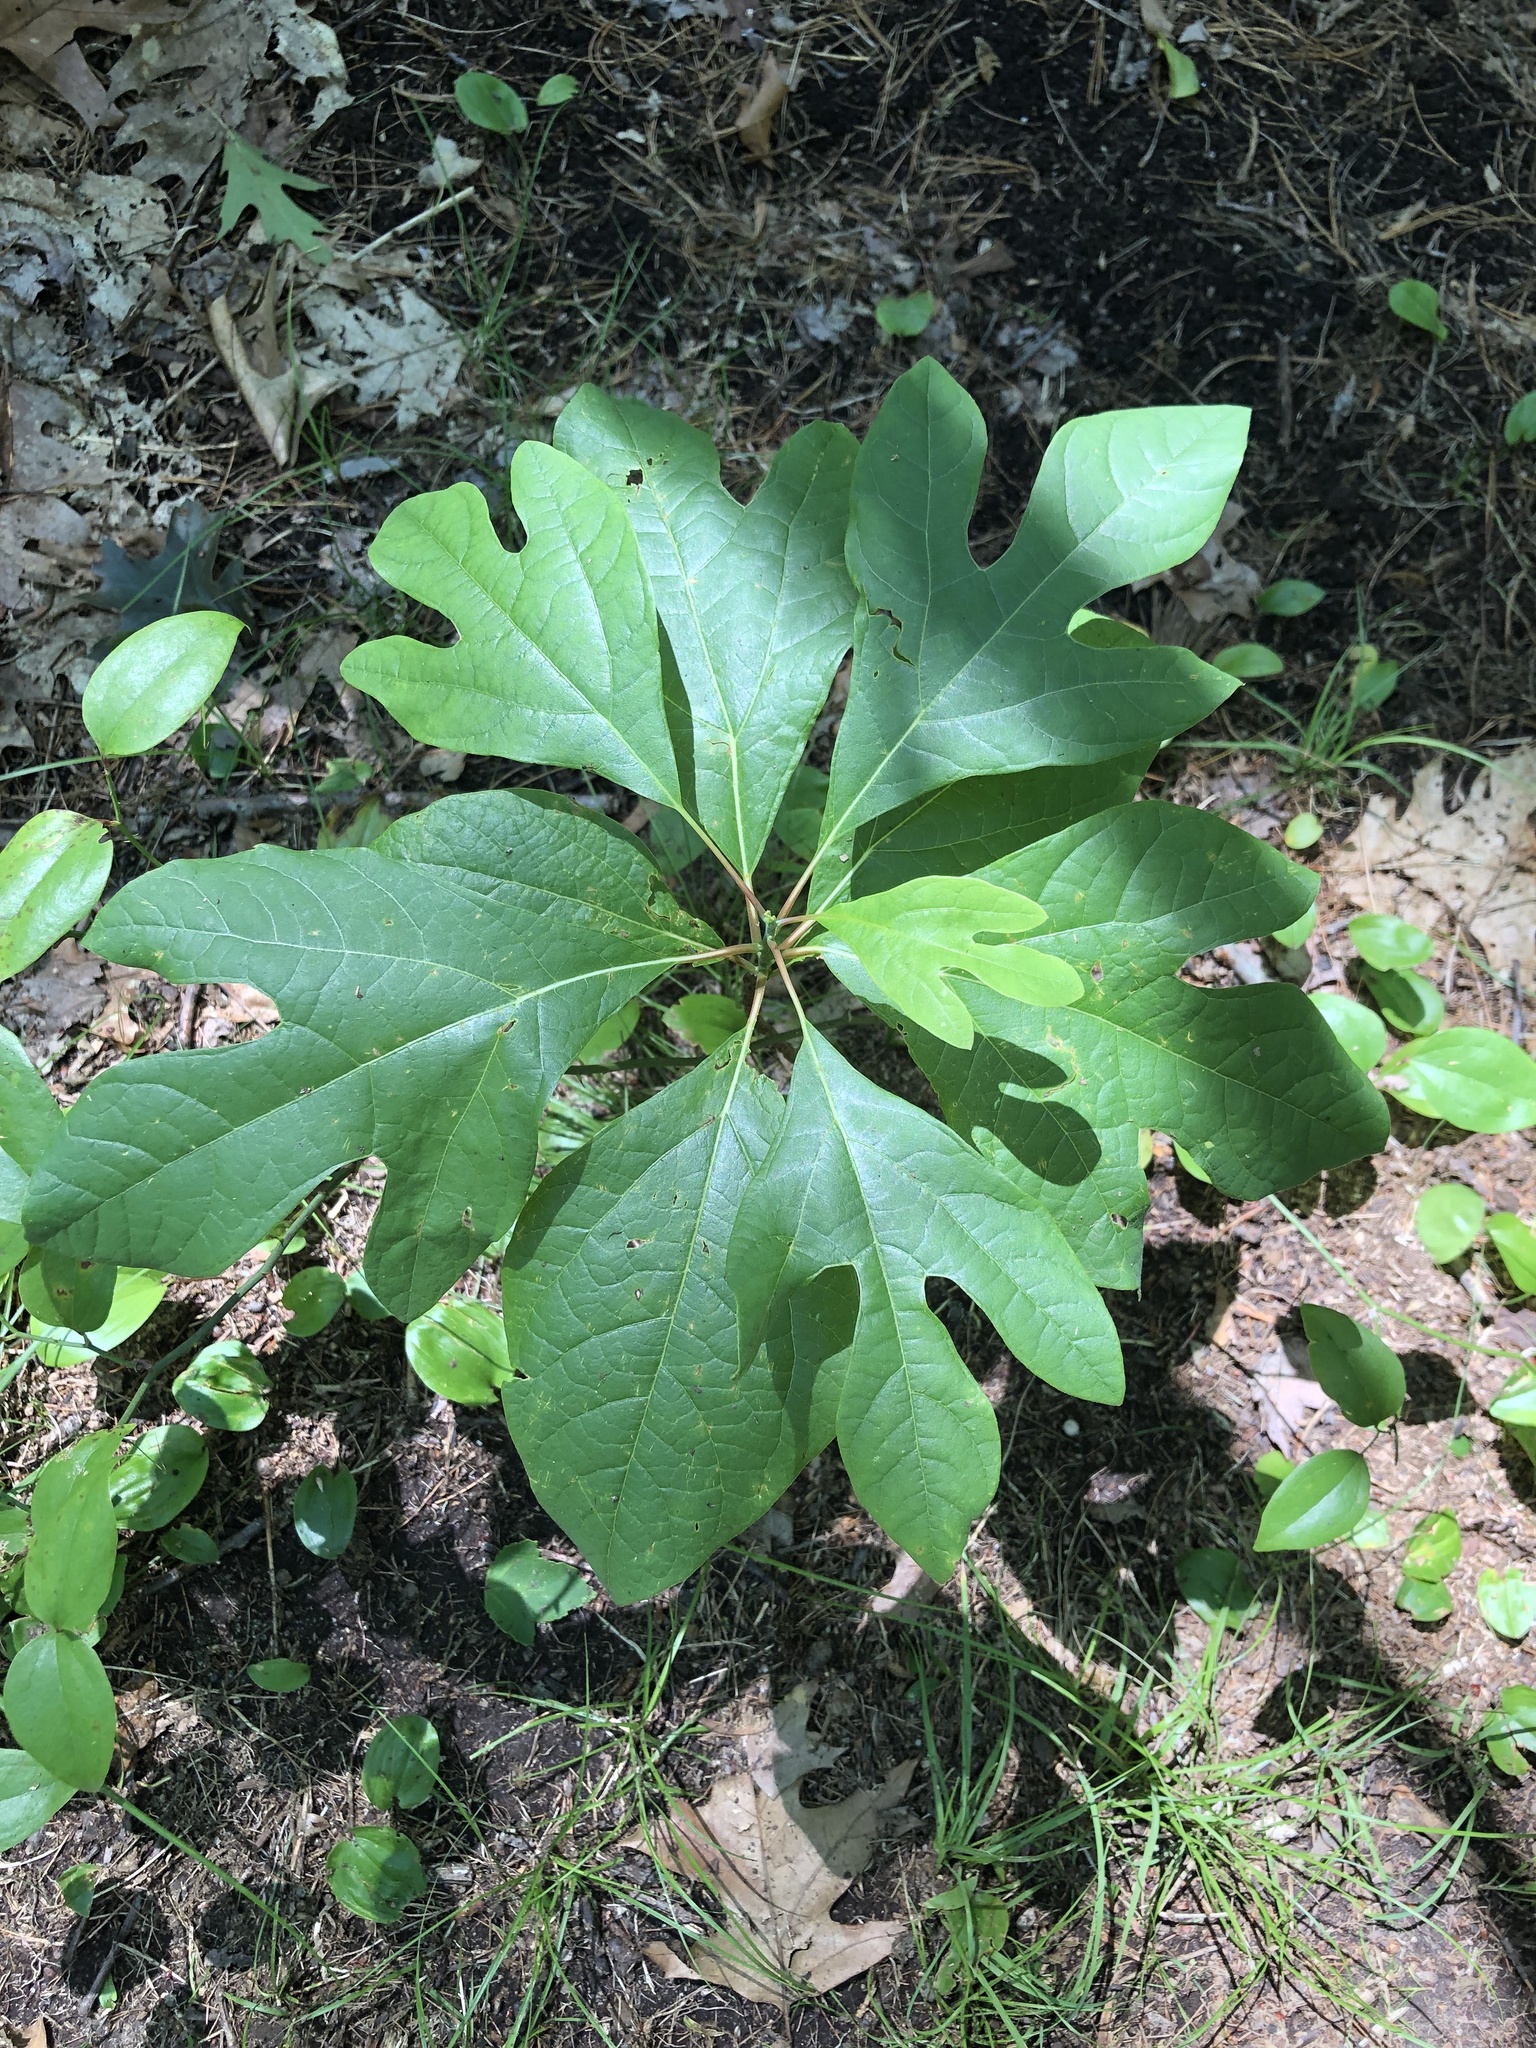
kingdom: Plantae
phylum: Tracheophyta
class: Magnoliopsida
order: Laurales
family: Lauraceae
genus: Sassafras
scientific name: Sassafras albidum
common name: Sassafras
